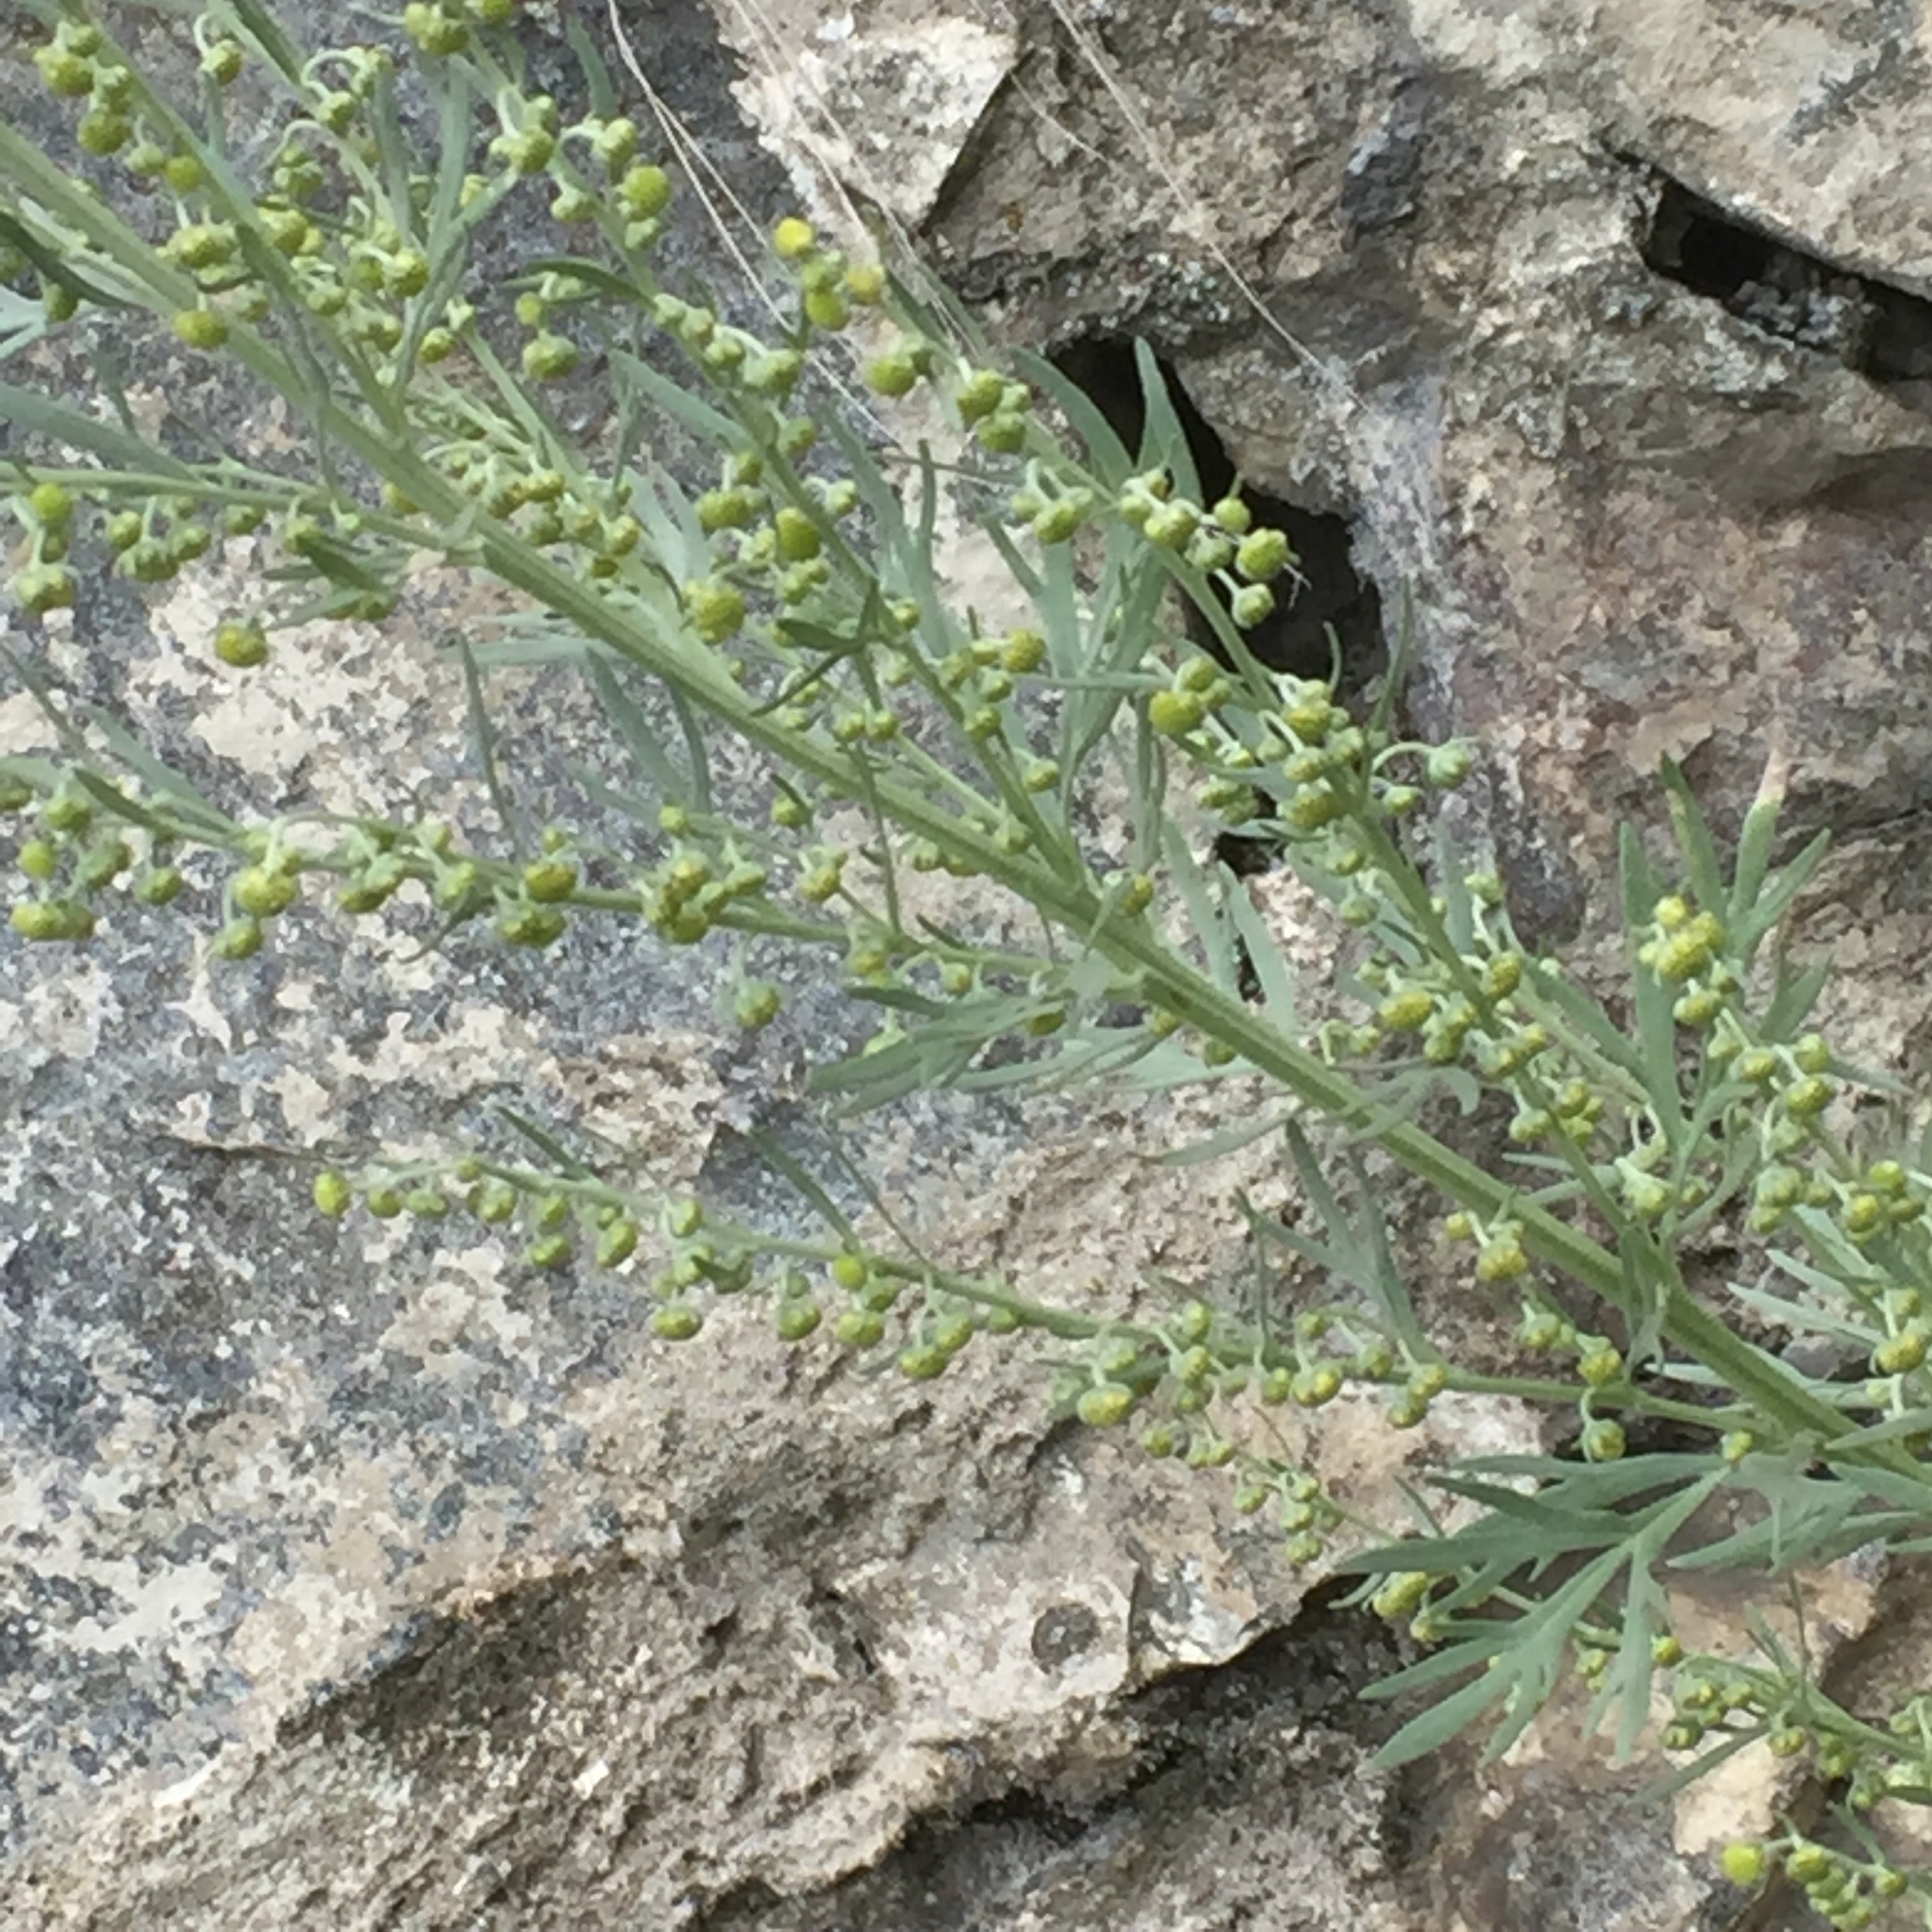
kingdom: Plantae
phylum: Tracheophyta
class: Magnoliopsida
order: Asterales
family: Asteraceae
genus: Artemisia
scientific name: Artemisia absinthium
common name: Wormwood
